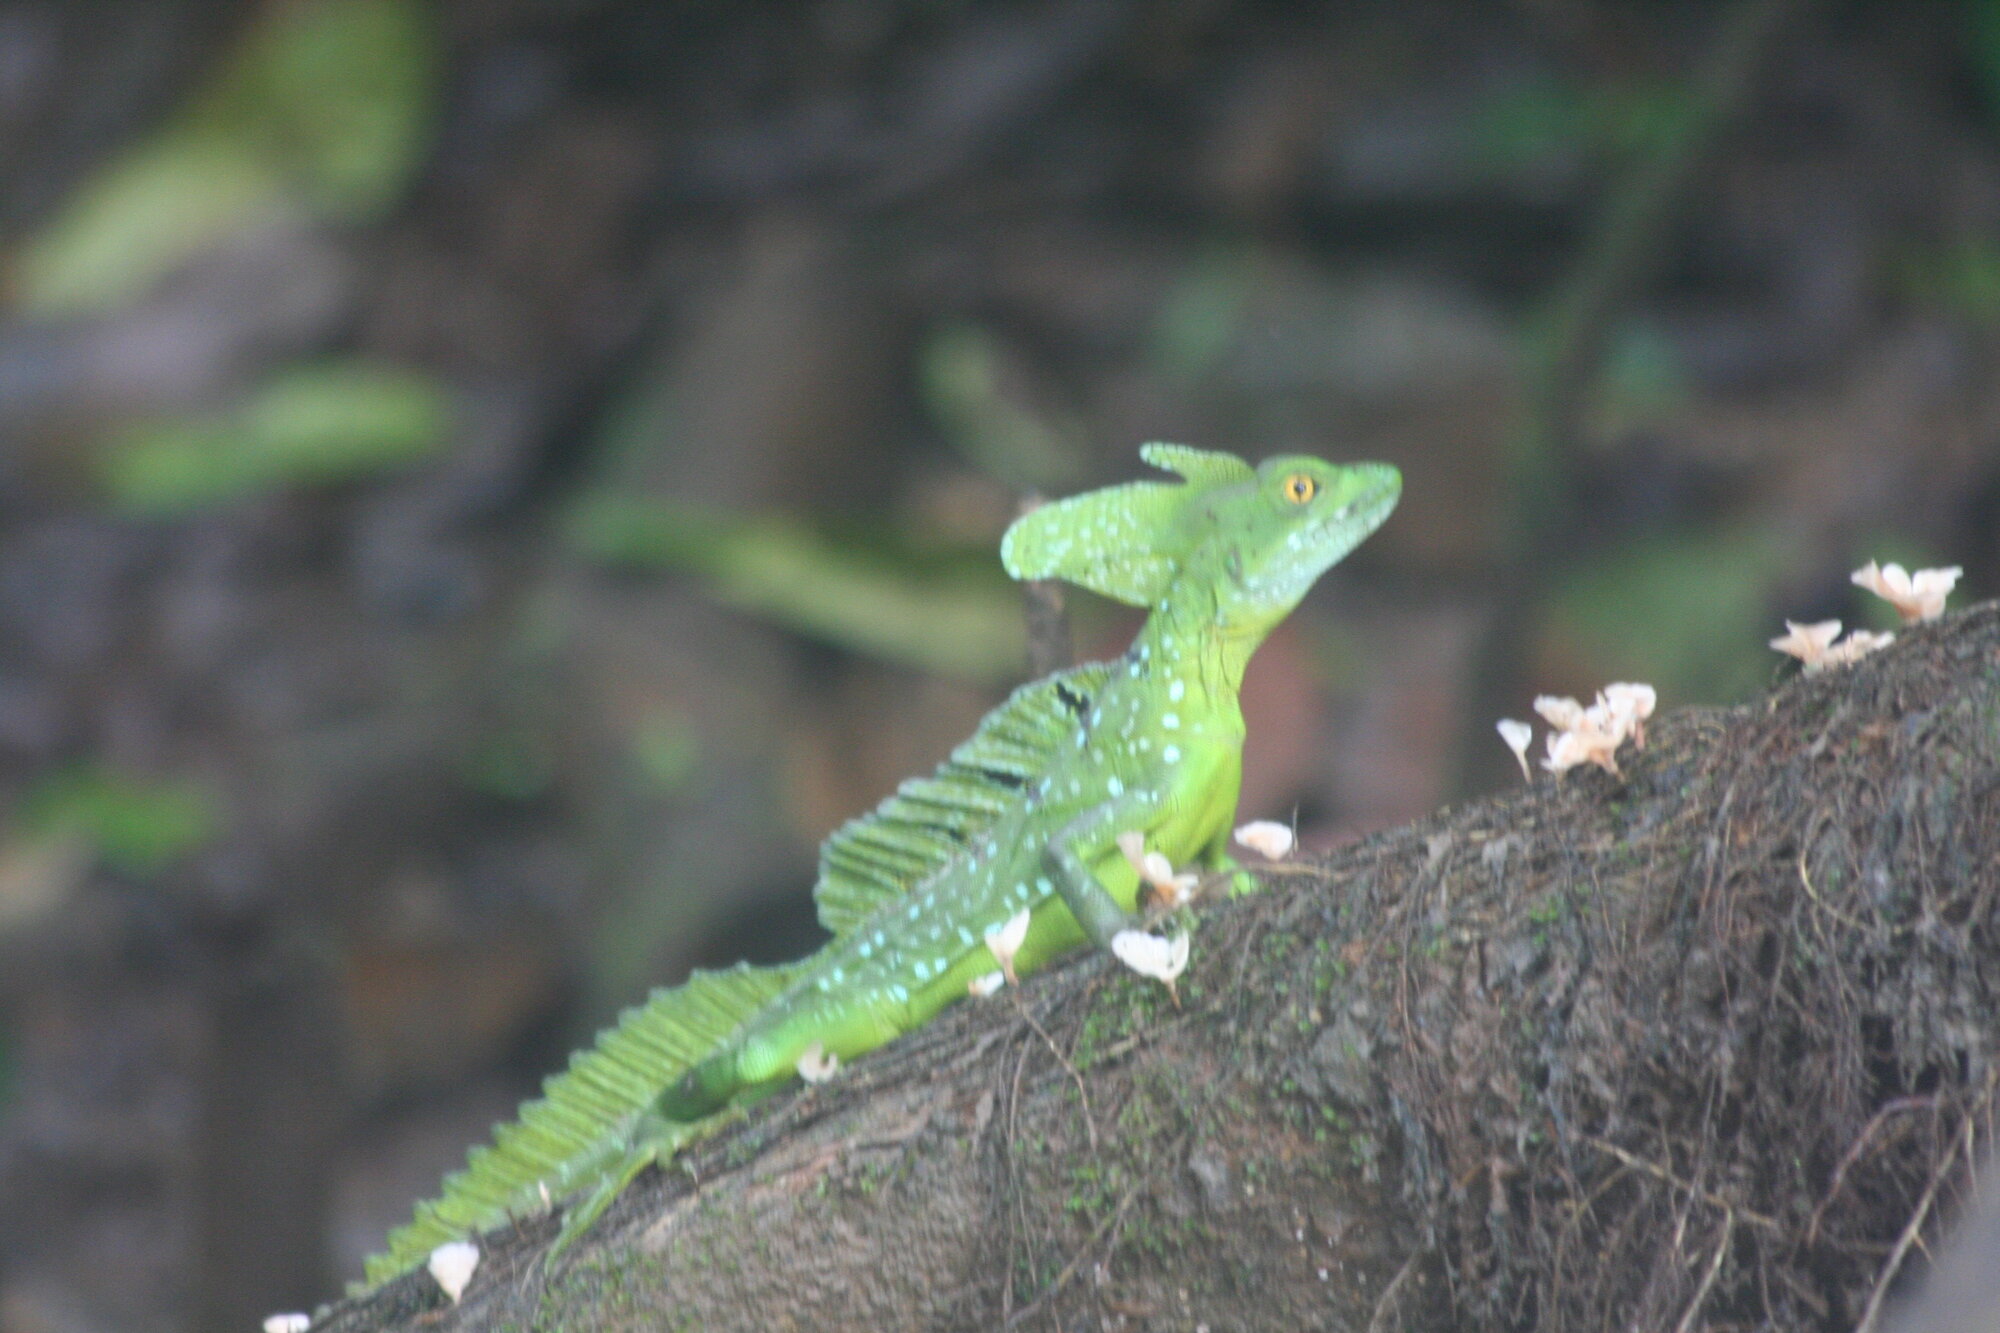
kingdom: Animalia
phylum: Chordata
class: Squamata
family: Corytophanidae
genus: Basiliscus
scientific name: Basiliscus plumifrons
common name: Green basilisk
